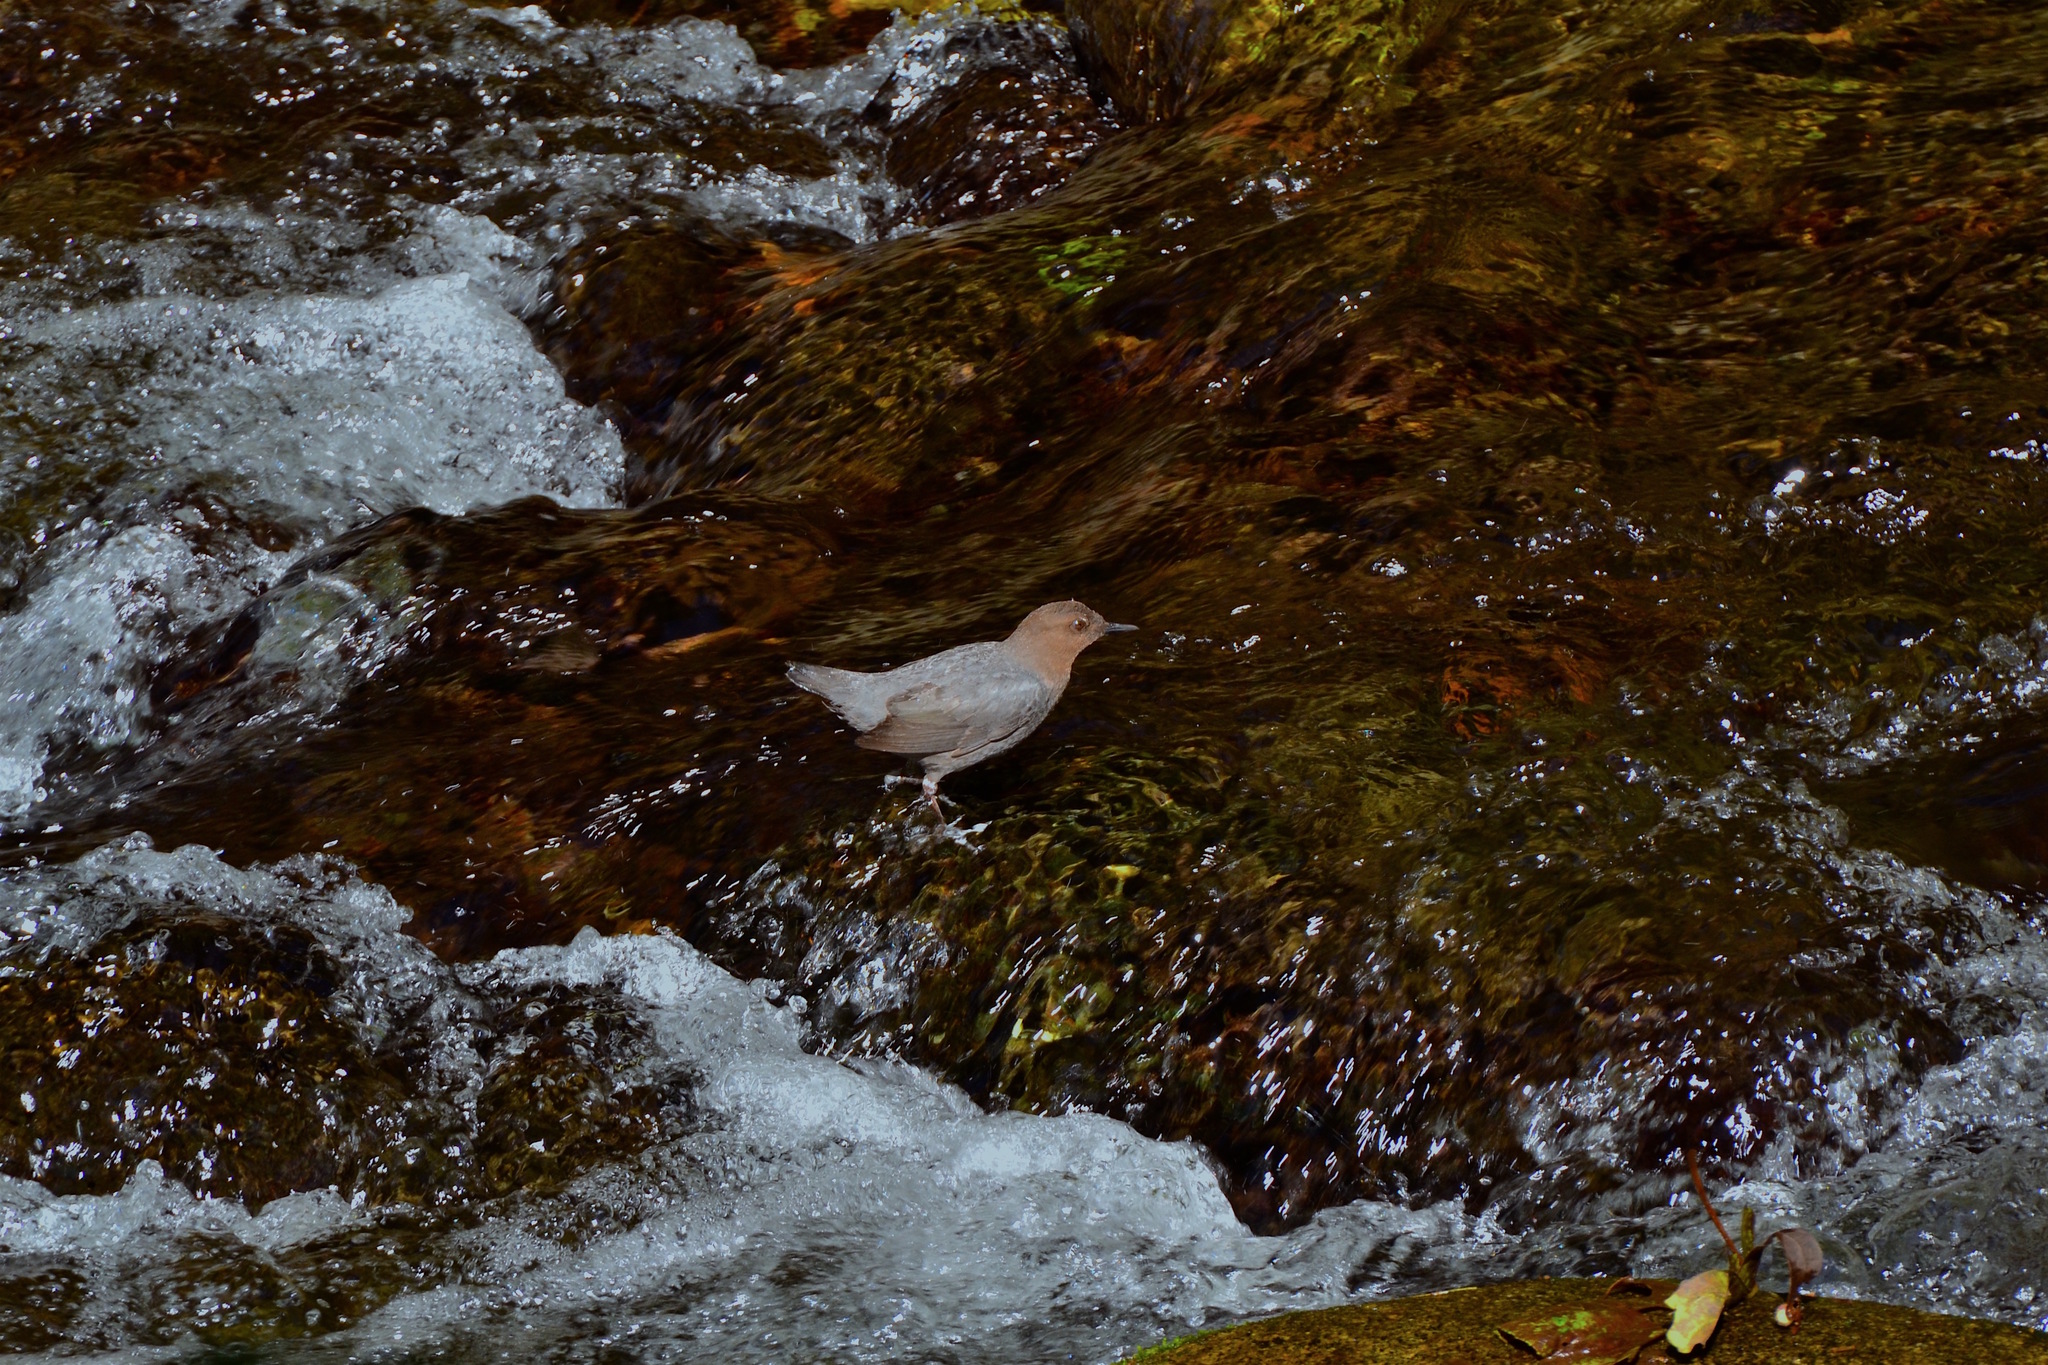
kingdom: Animalia
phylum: Chordata
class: Aves
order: Passeriformes
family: Cinclidae
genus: Cinclus
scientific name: Cinclus mexicanus
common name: American dipper
